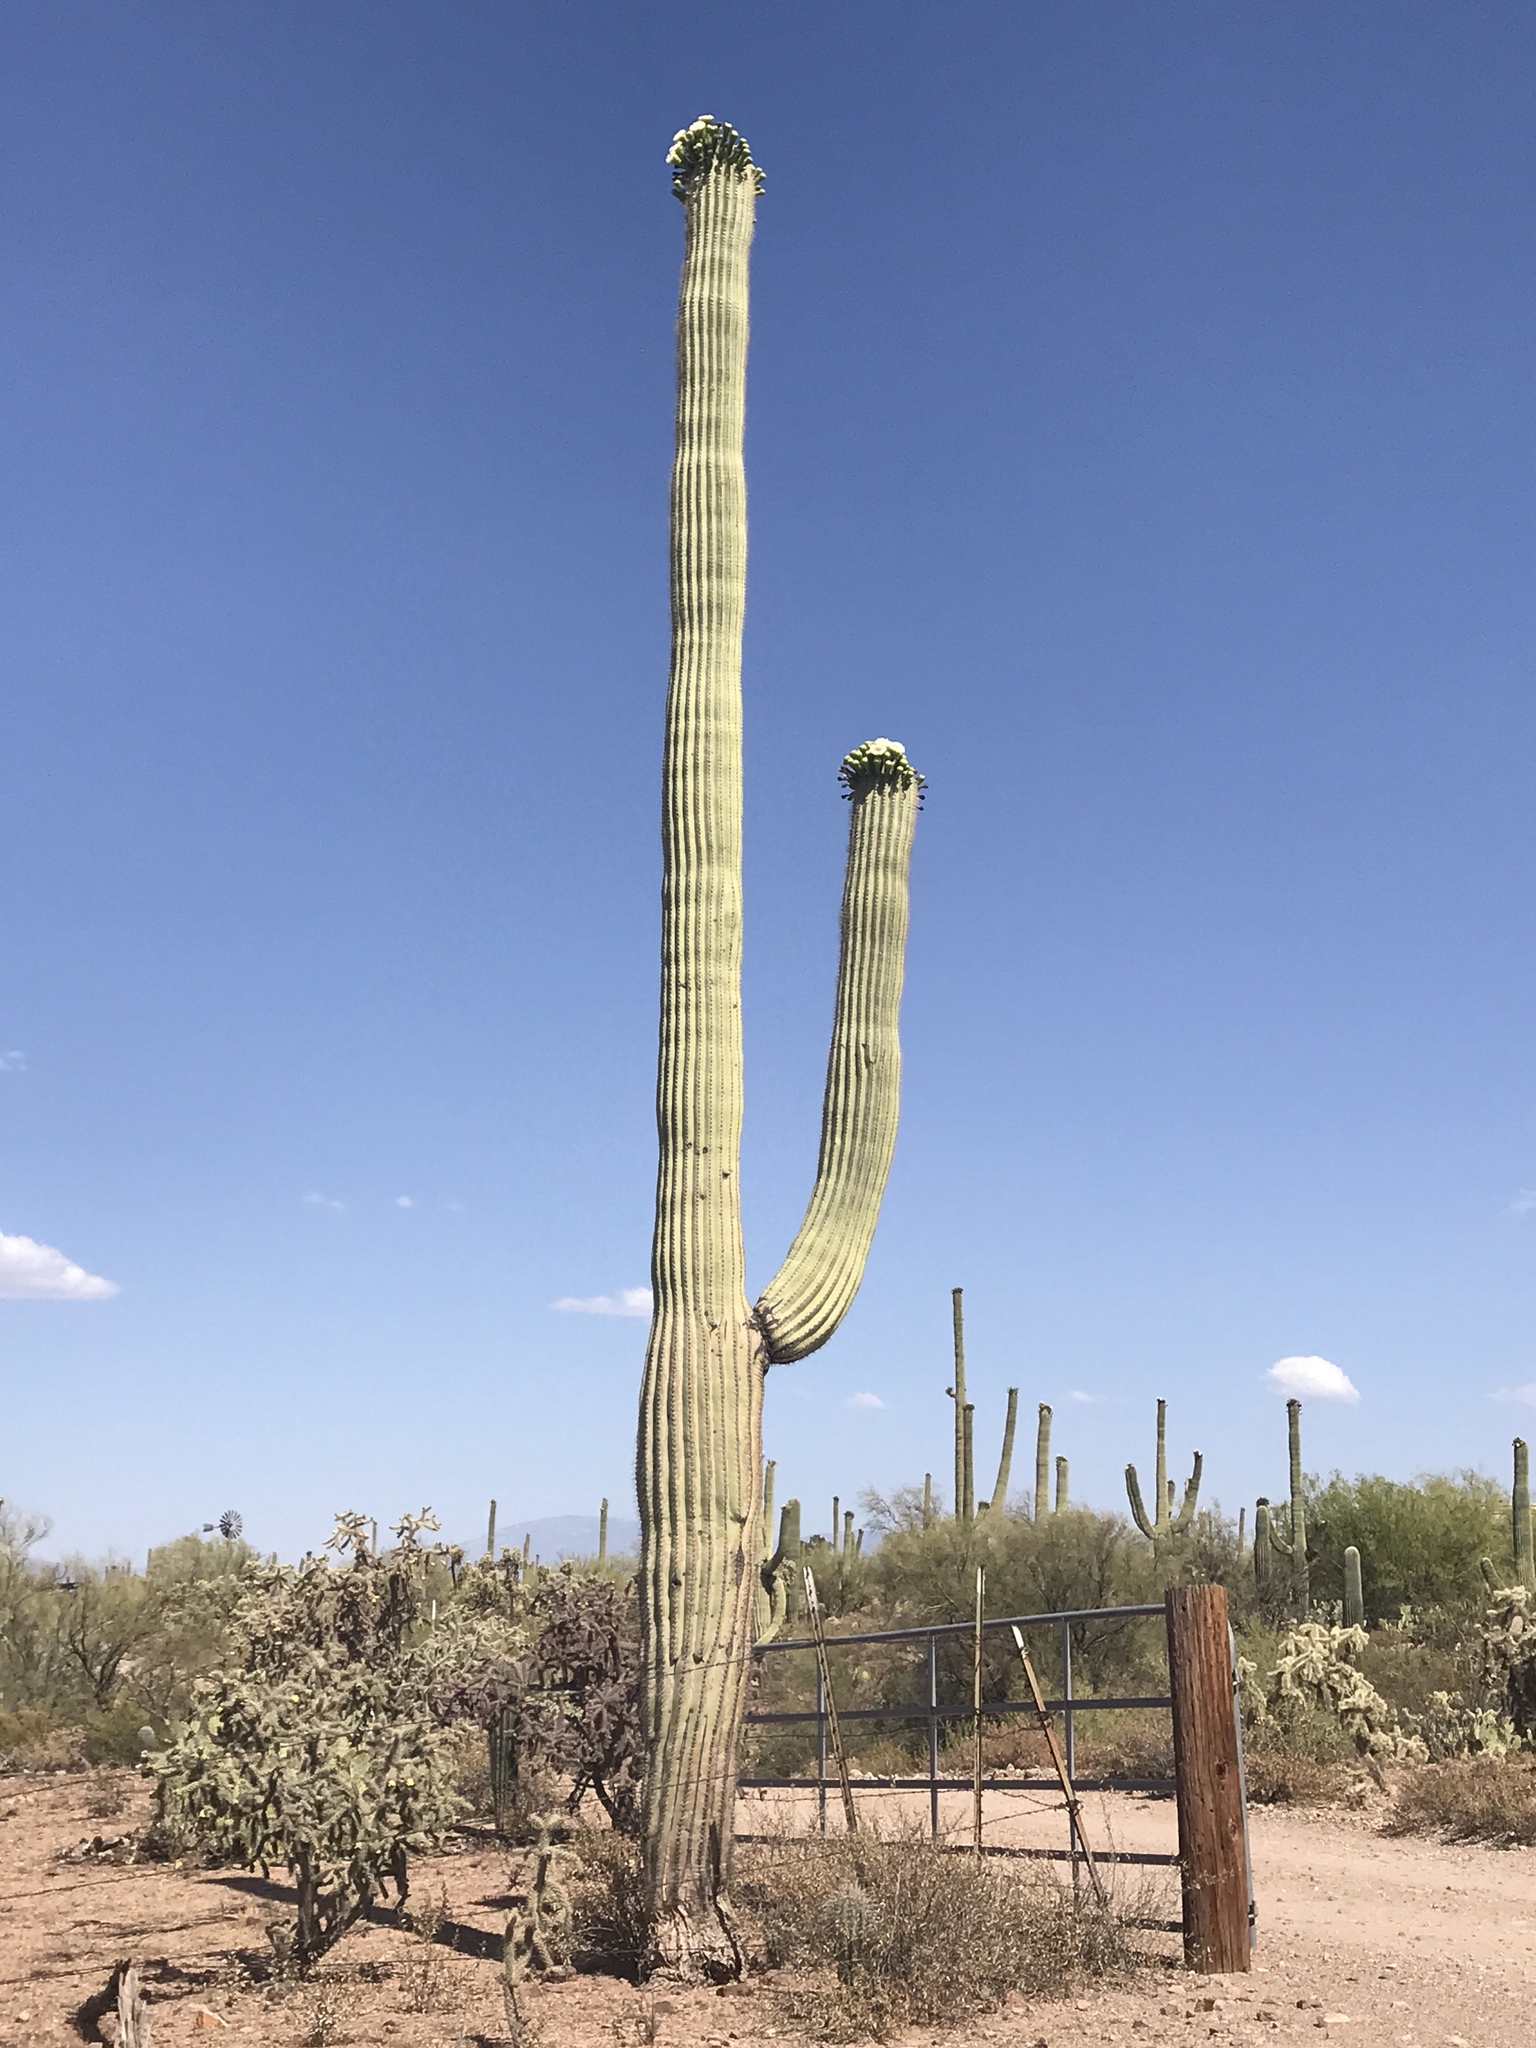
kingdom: Plantae
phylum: Tracheophyta
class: Magnoliopsida
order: Caryophyllales
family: Cactaceae
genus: Carnegiea
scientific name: Carnegiea gigantea
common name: Saguaro
